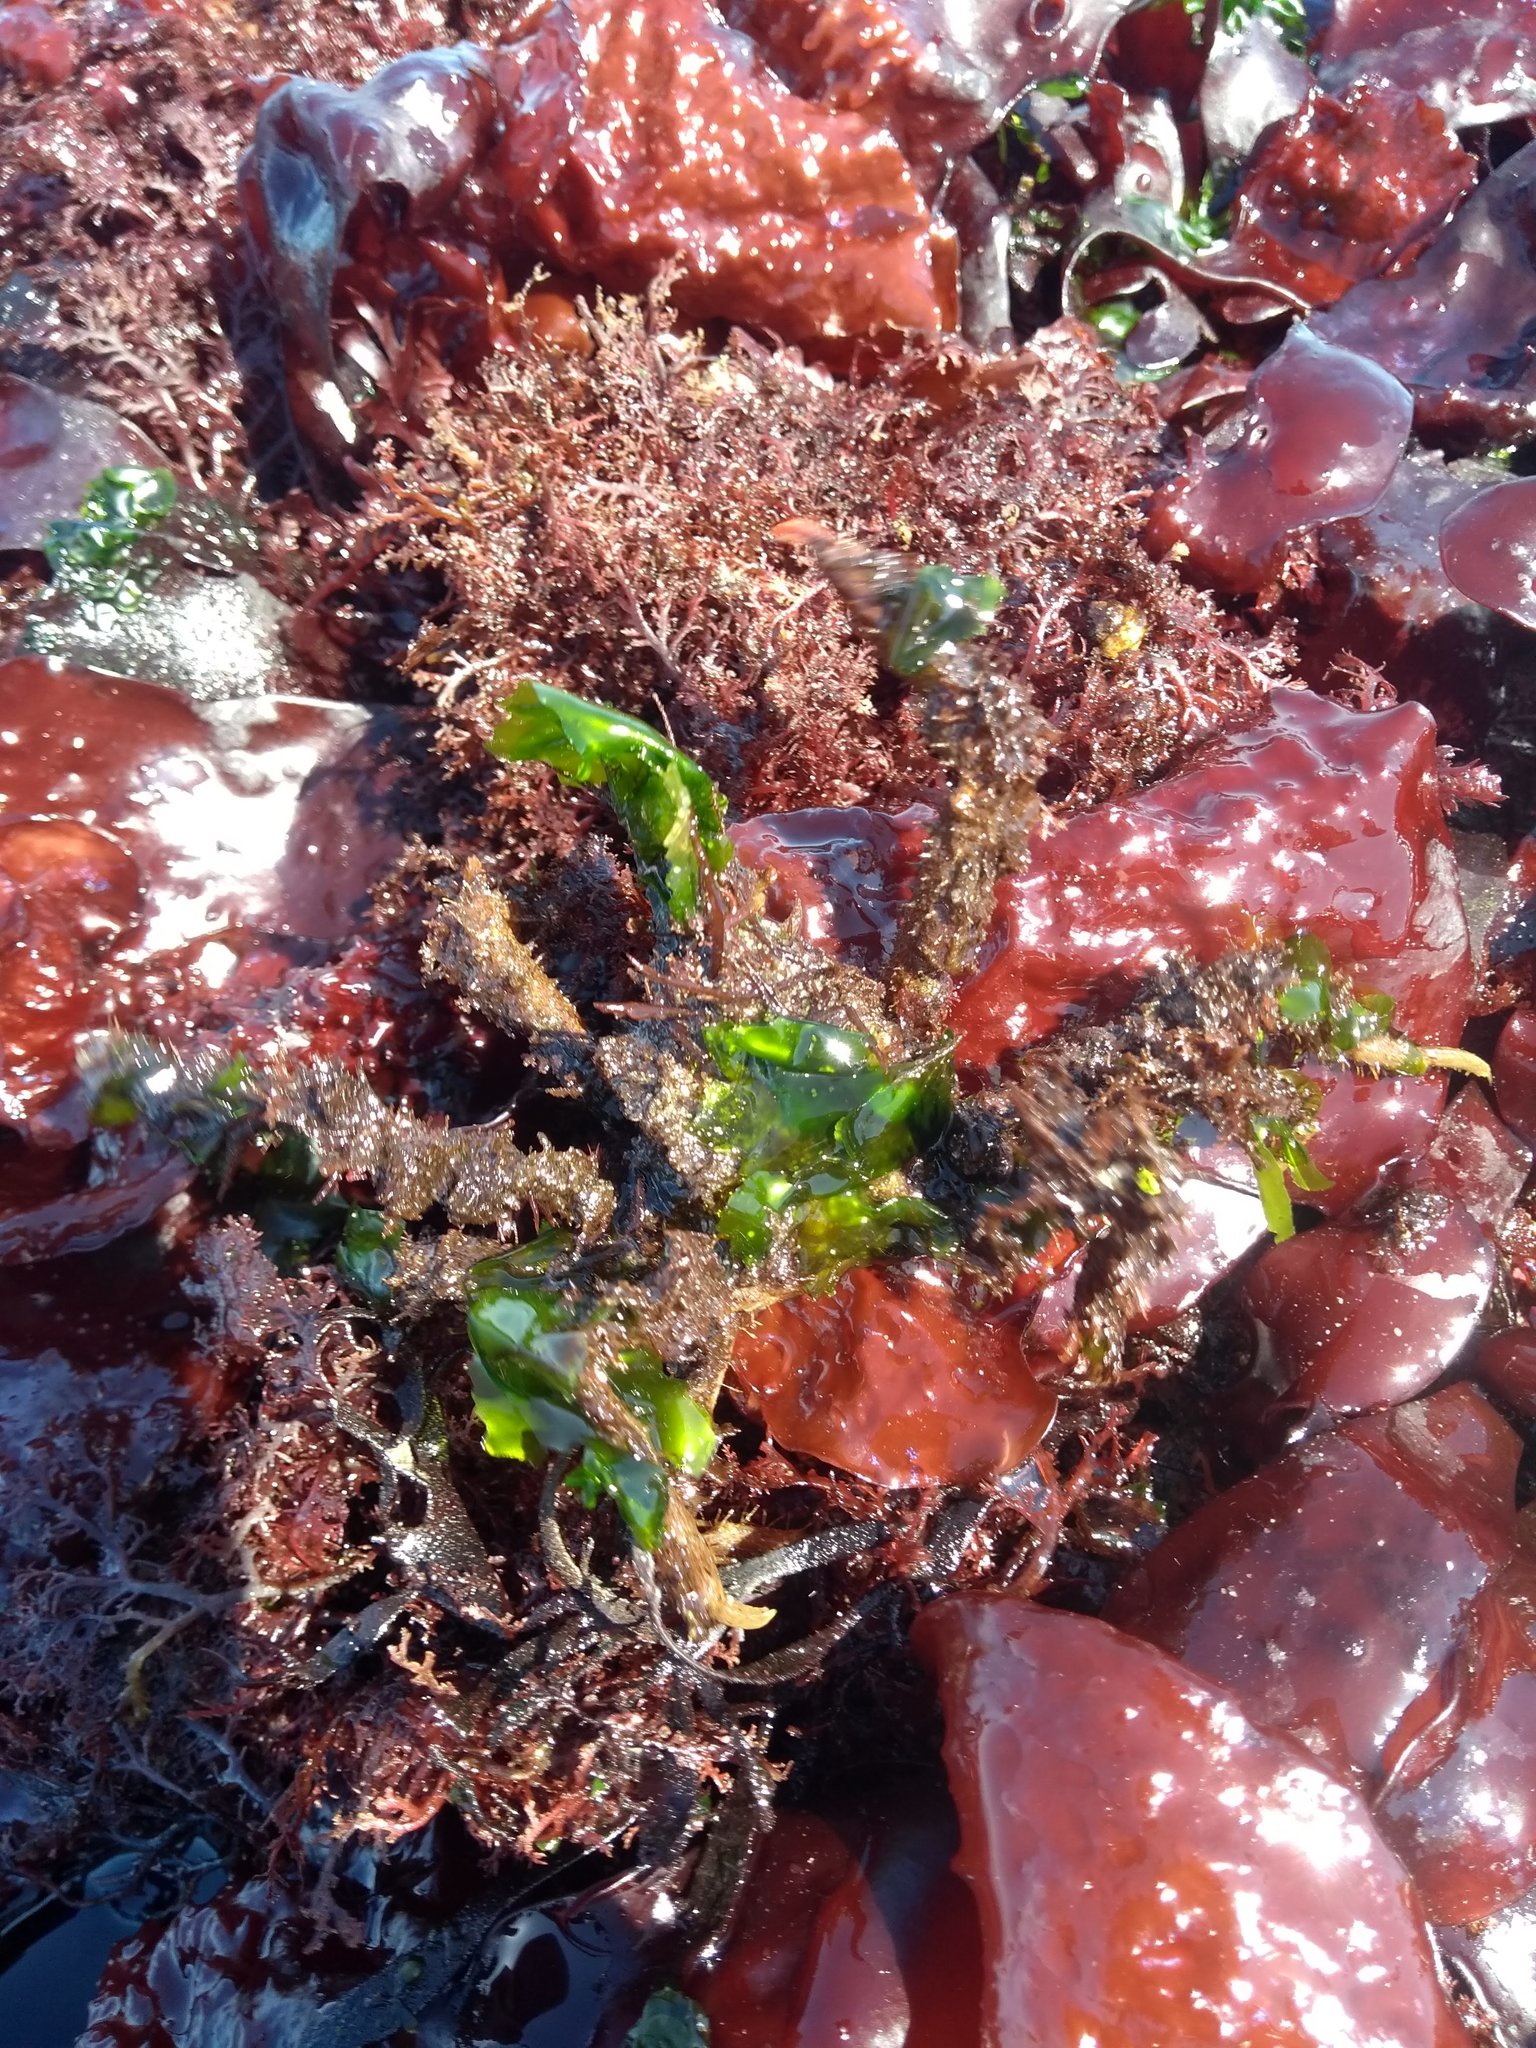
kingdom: Animalia
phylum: Arthropoda
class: Malacostraca
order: Decapoda
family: Oregoniidae
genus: Oregonia
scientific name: Oregonia gracilis
